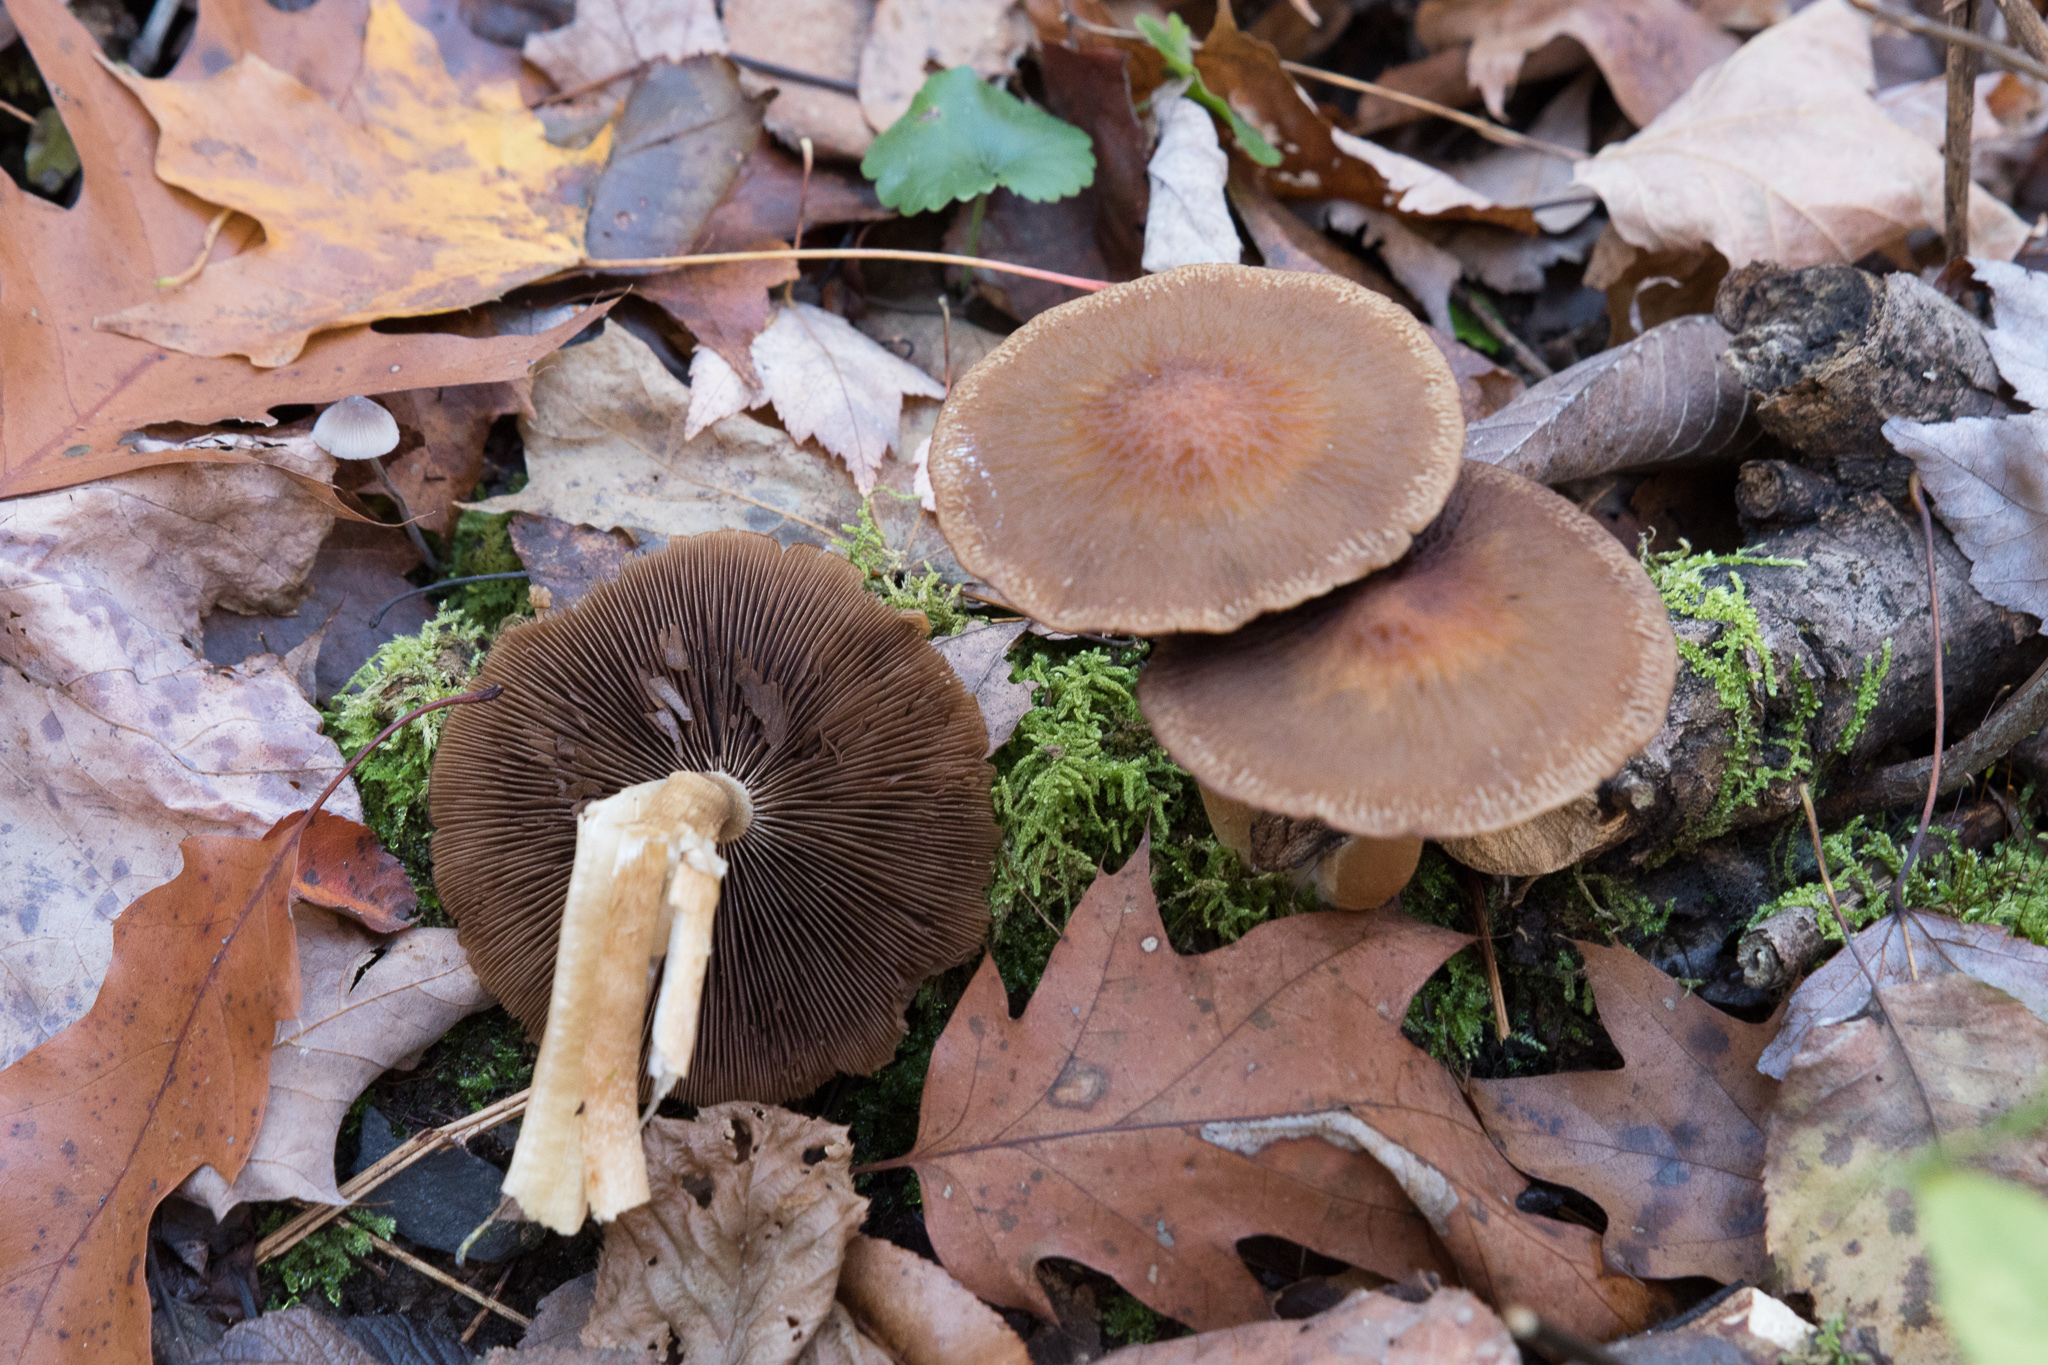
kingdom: Fungi
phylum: Basidiomycota
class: Agaricomycetes
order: Agaricales
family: Psathyrellaceae
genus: Typhrasa
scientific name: Typhrasa gossypina
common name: Wrinkled psathyrella
